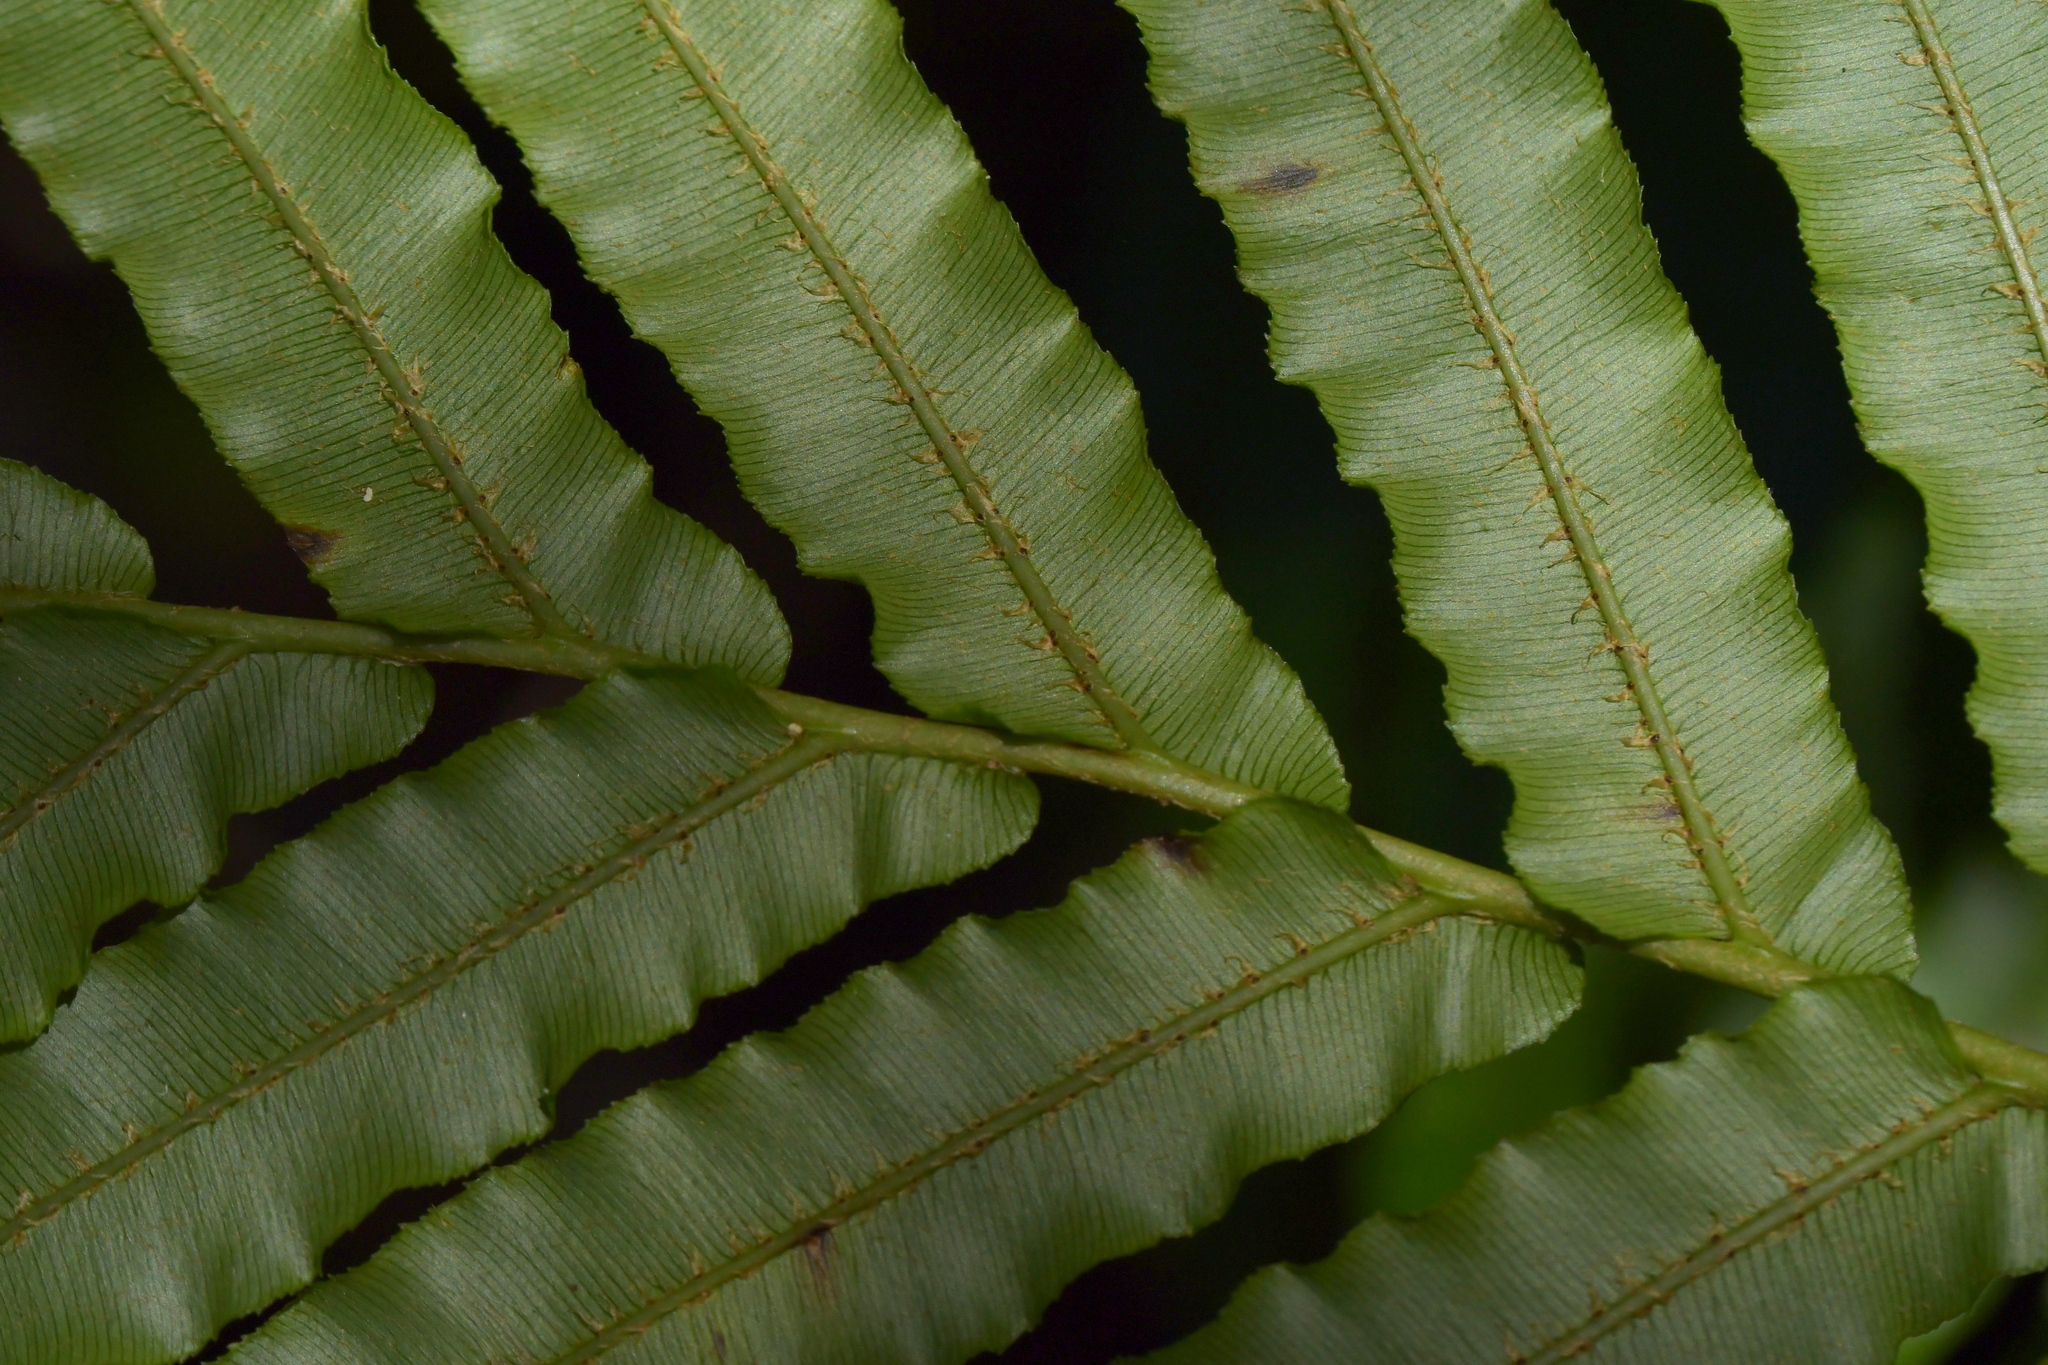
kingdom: Plantae
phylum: Tracheophyta
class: Polypodiopsida
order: Polypodiales
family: Blechnaceae
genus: Parablechnum
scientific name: Parablechnum novae-zelandiae
